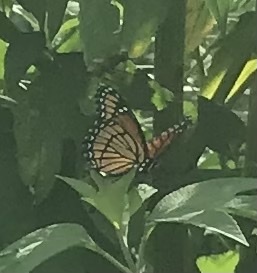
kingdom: Animalia
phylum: Arthropoda
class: Insecta
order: Lepidoptera
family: Nymphalidae
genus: Limenitis
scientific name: Limenitis archippus
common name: Viceroy
